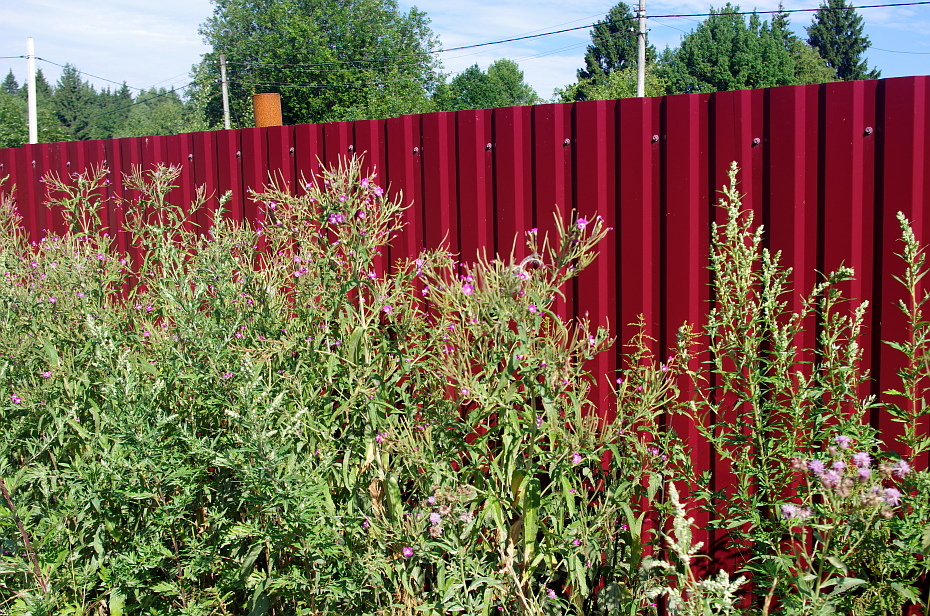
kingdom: Plantae
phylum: Tracheophyta
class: Magnoliopsida
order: Myrtales
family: Onagraceae
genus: Epilobium
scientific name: Epilobium hirsutum
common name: Great willowherb
